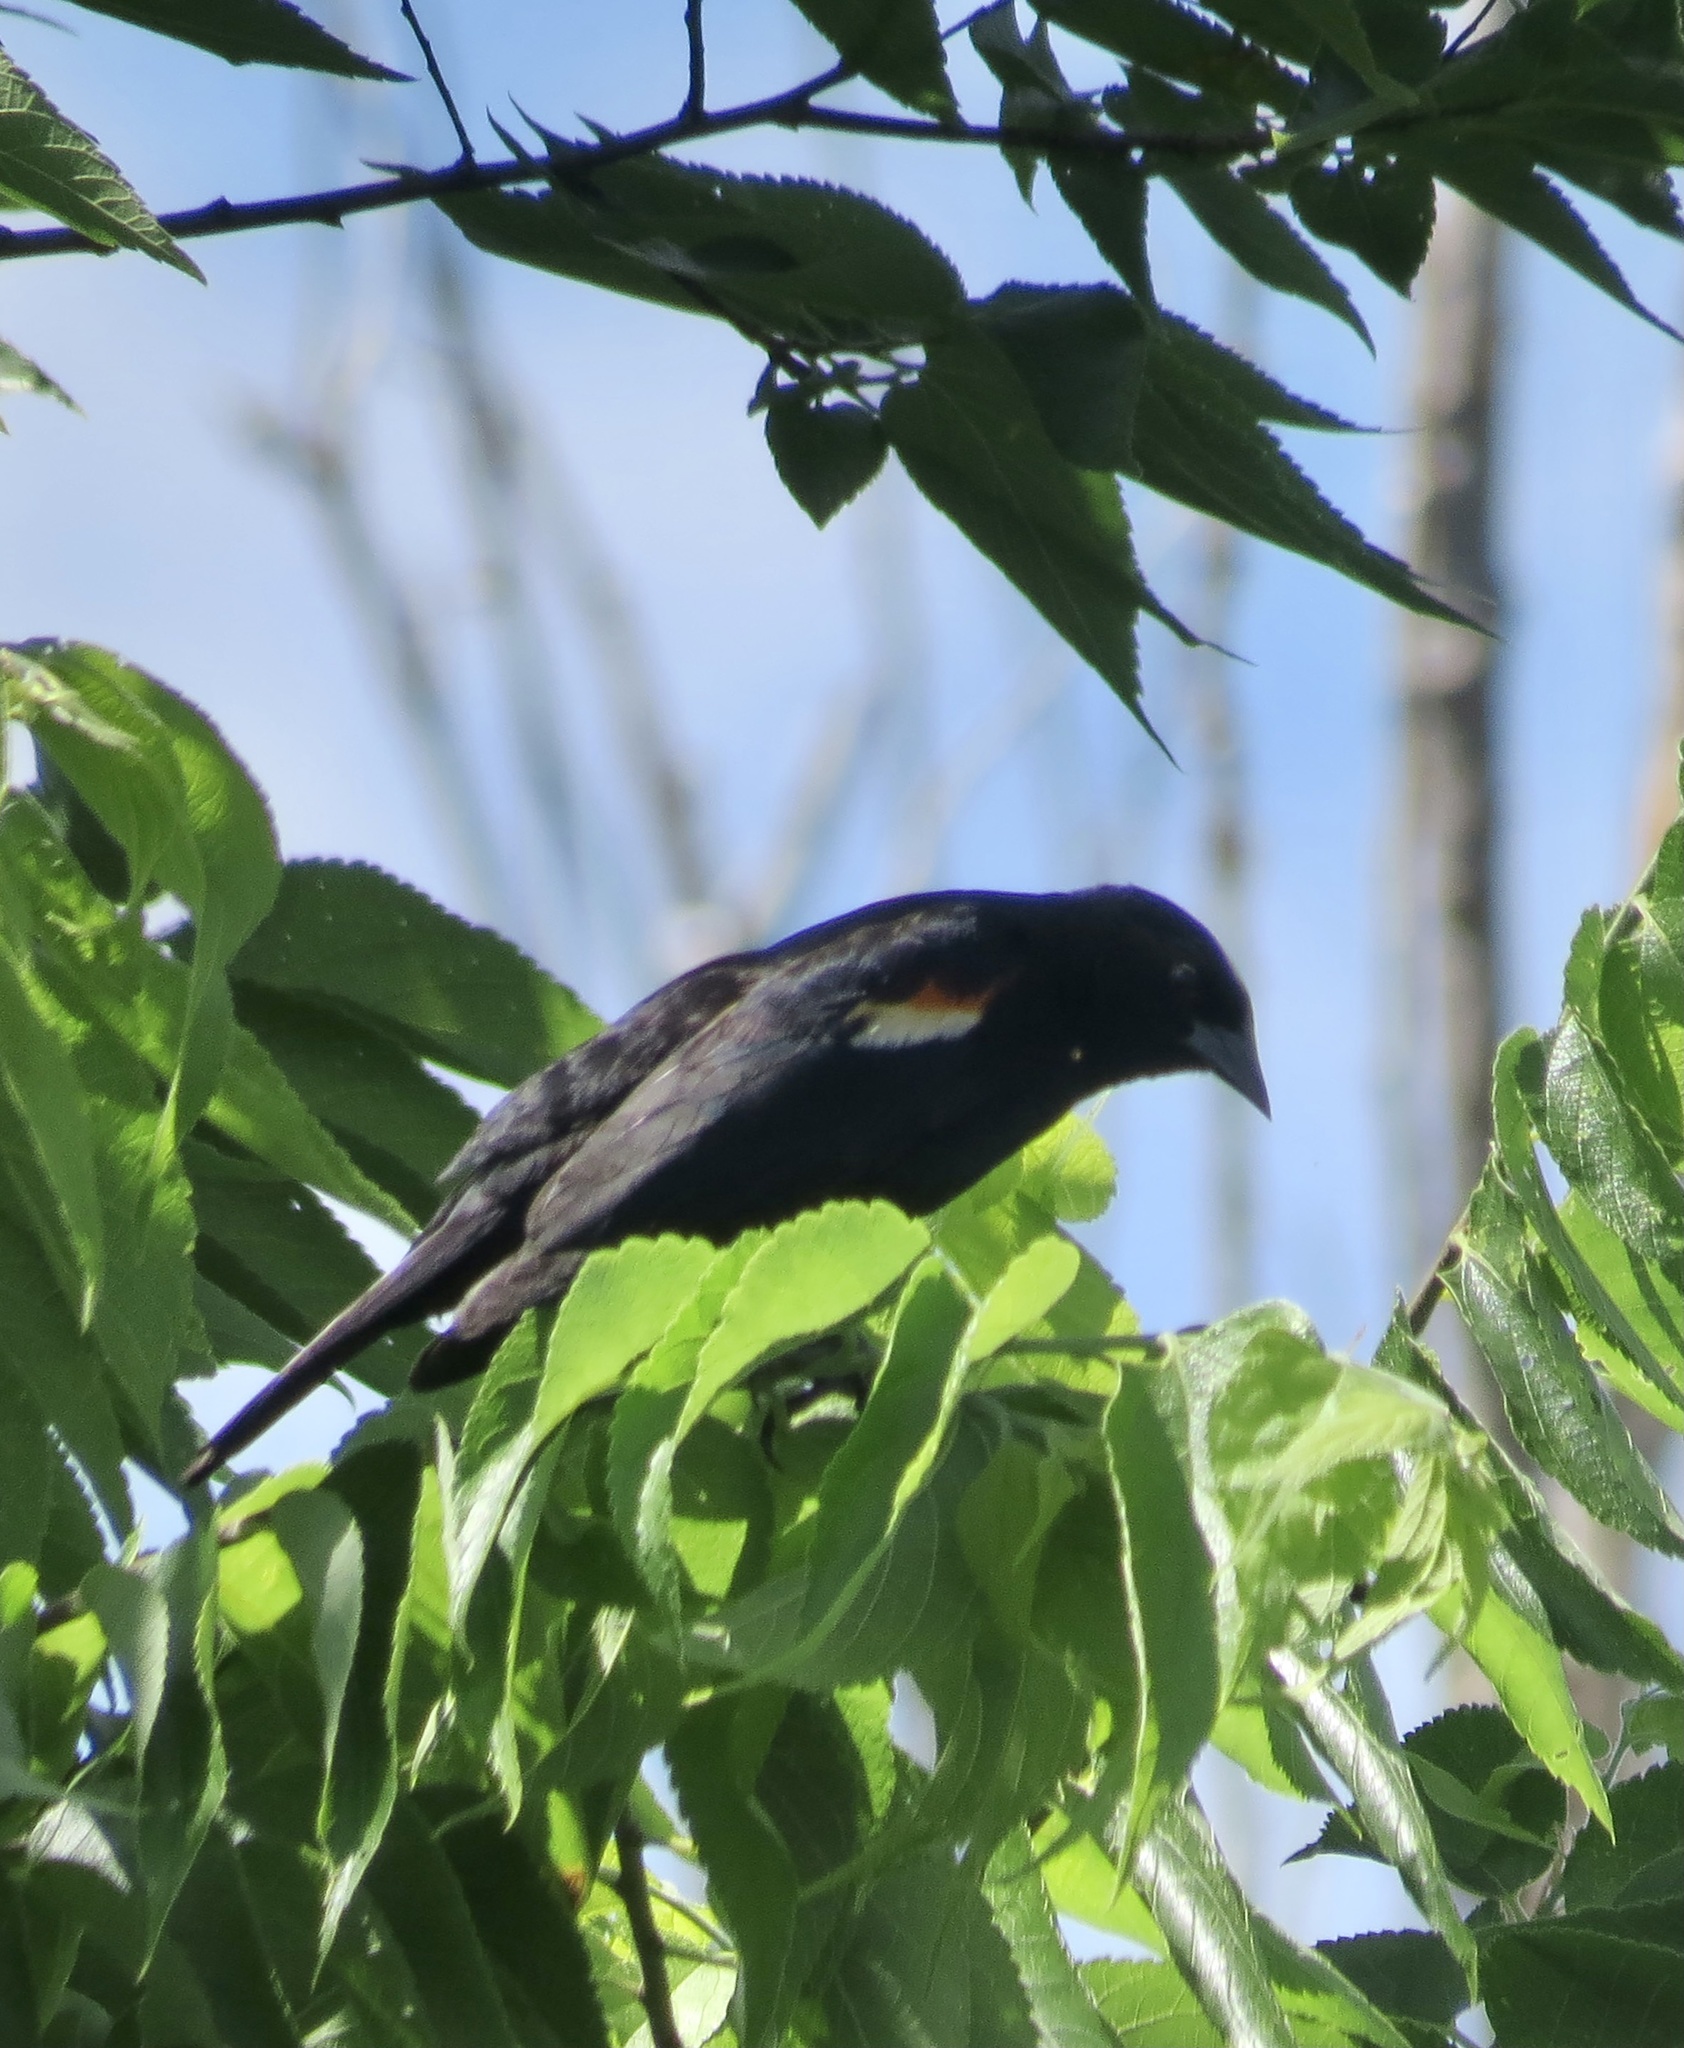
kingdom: Animalia
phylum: Chordata
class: Aves
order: Passeriformes
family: Icteridae
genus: Agelaius
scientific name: Agelaius phoeniceus
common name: Red-winged blackbird
